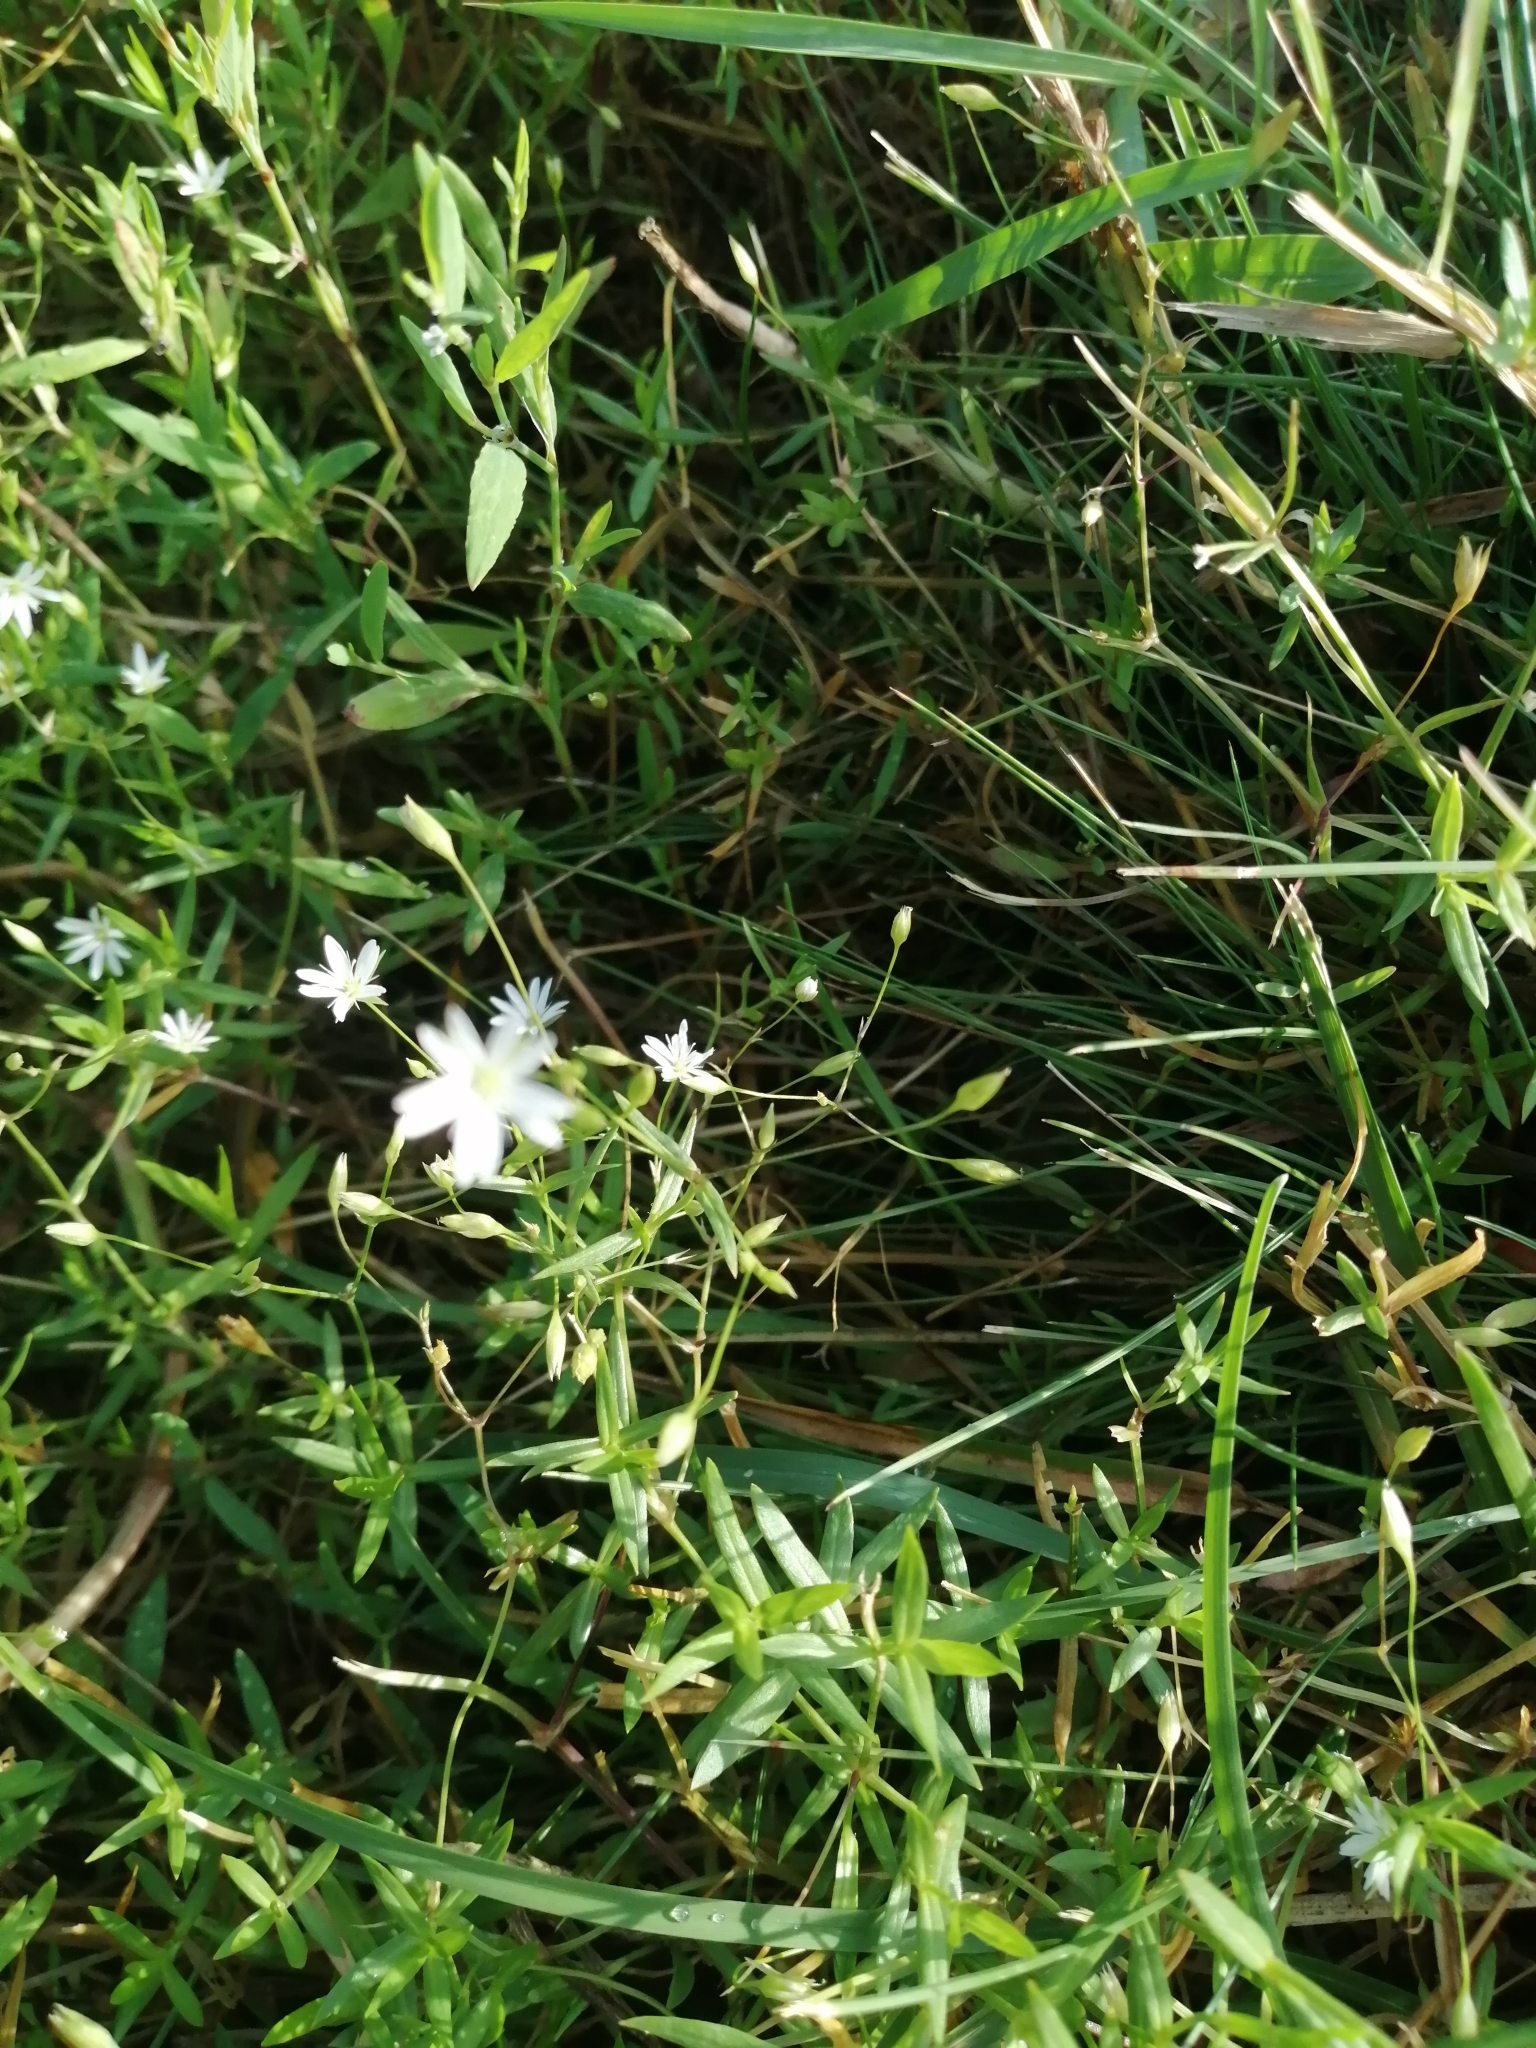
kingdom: Plantae
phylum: Tracheophyta
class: Magnoliopsida
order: Caryophyllales
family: Caryophyllaceae
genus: Stellaria
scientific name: Stellaria graminea
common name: Grass-like starwort
